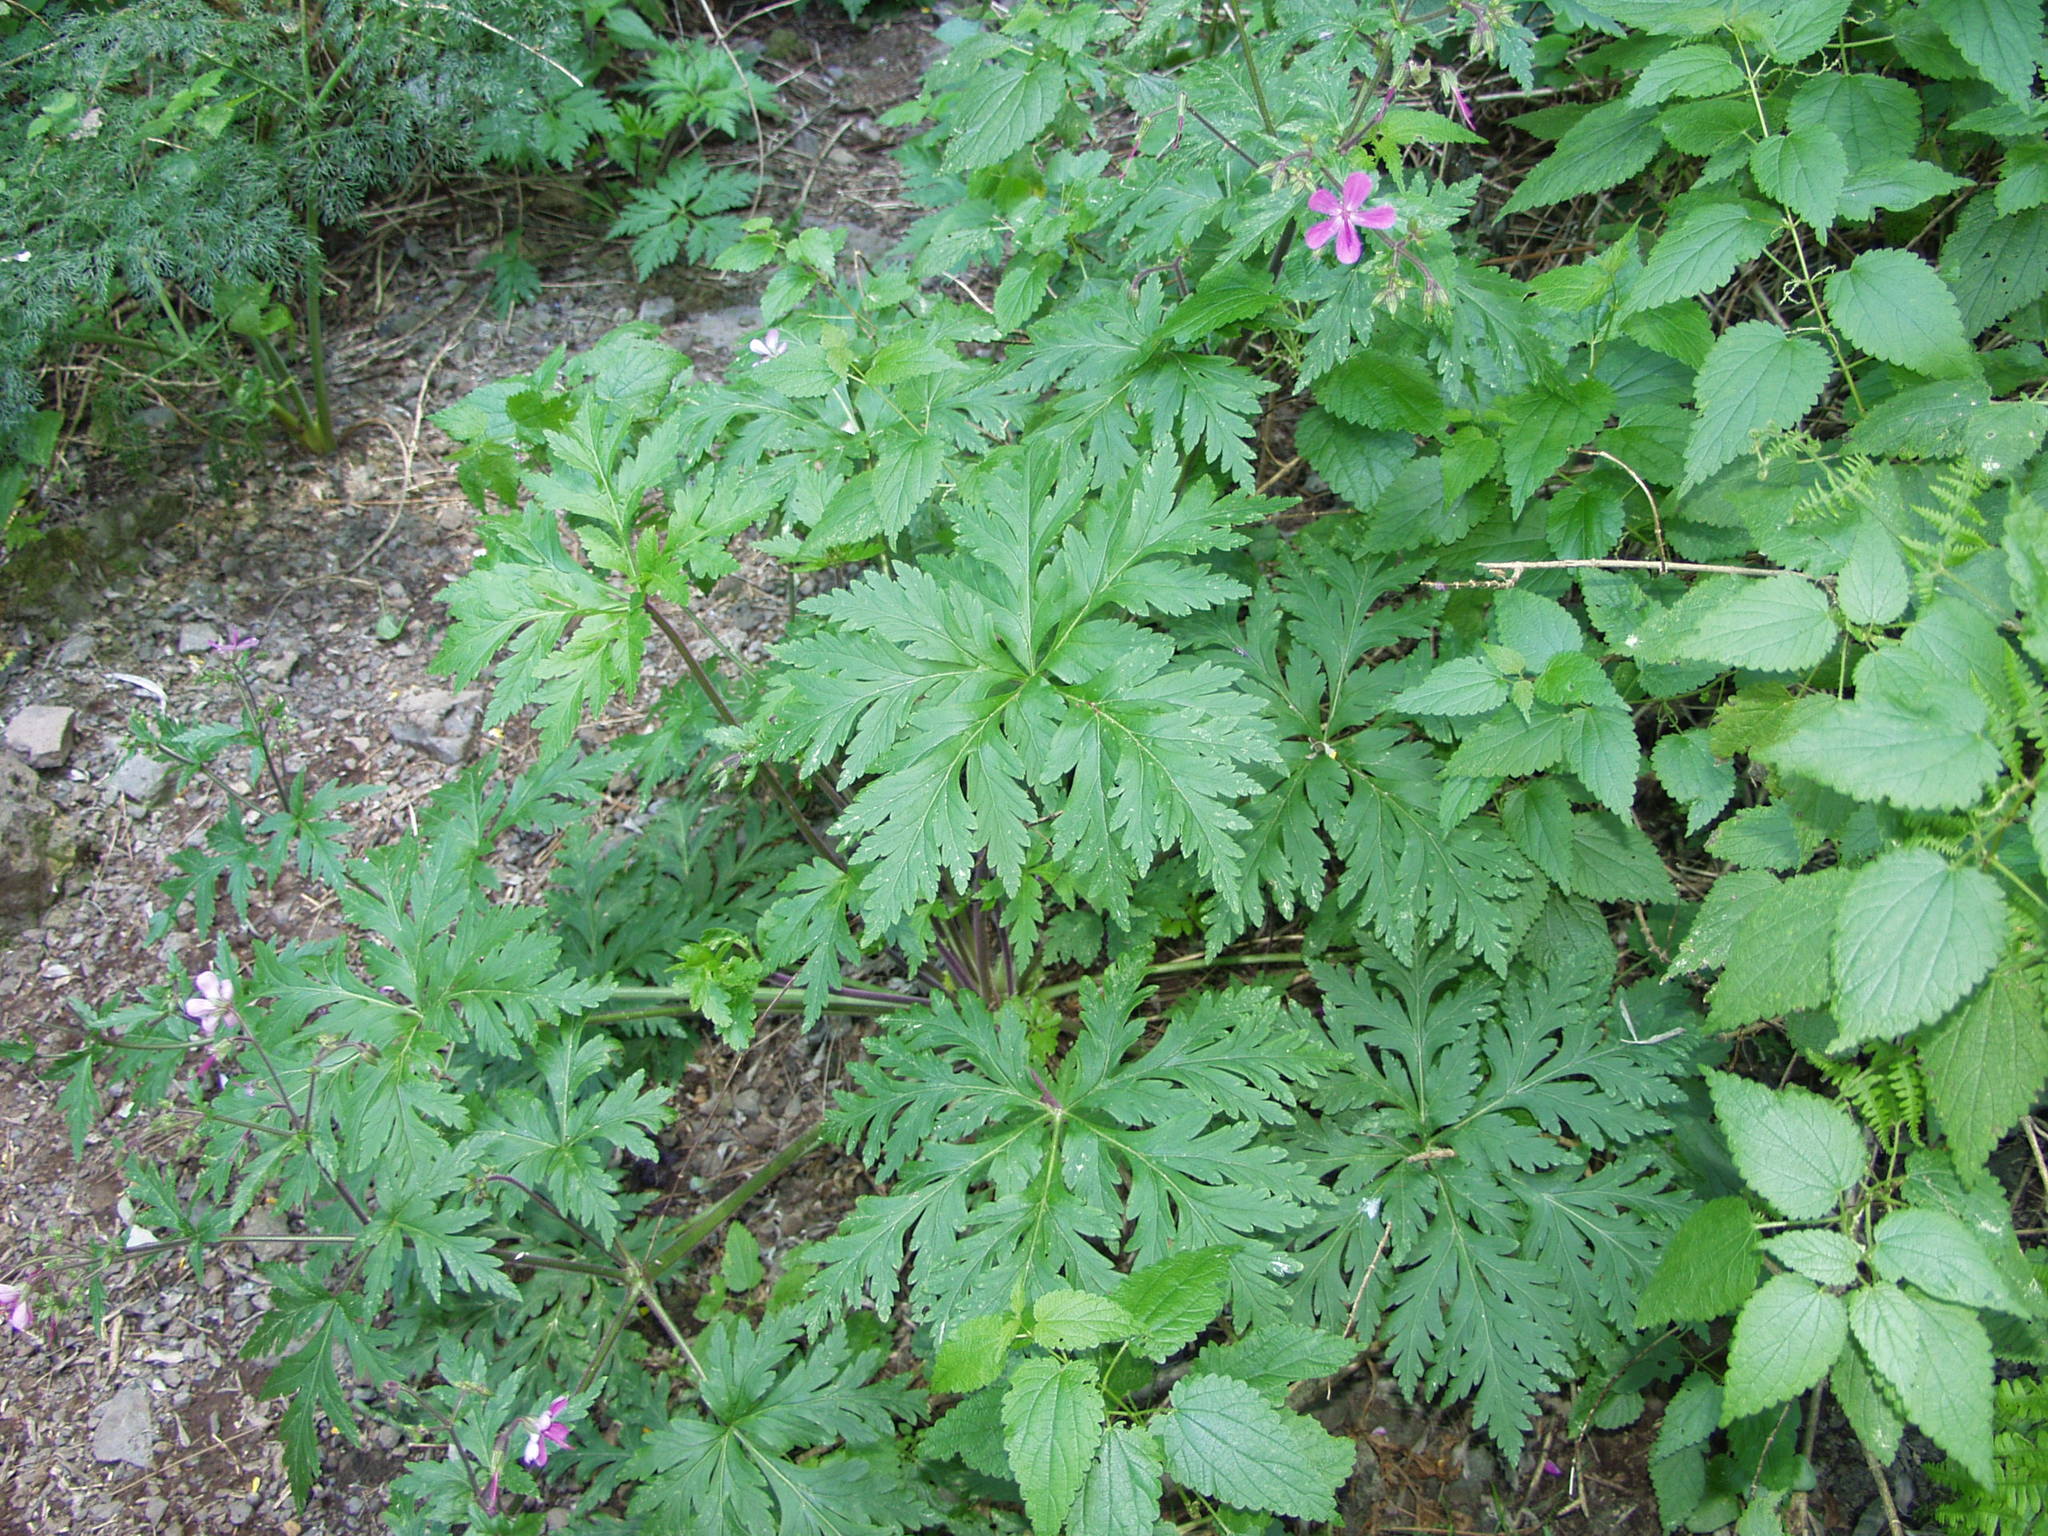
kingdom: Plantae
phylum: Tracheophyta
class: Magnoliopsida
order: Geraniales
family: Geraniaceae
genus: Geranium
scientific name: Geranium reuteri
